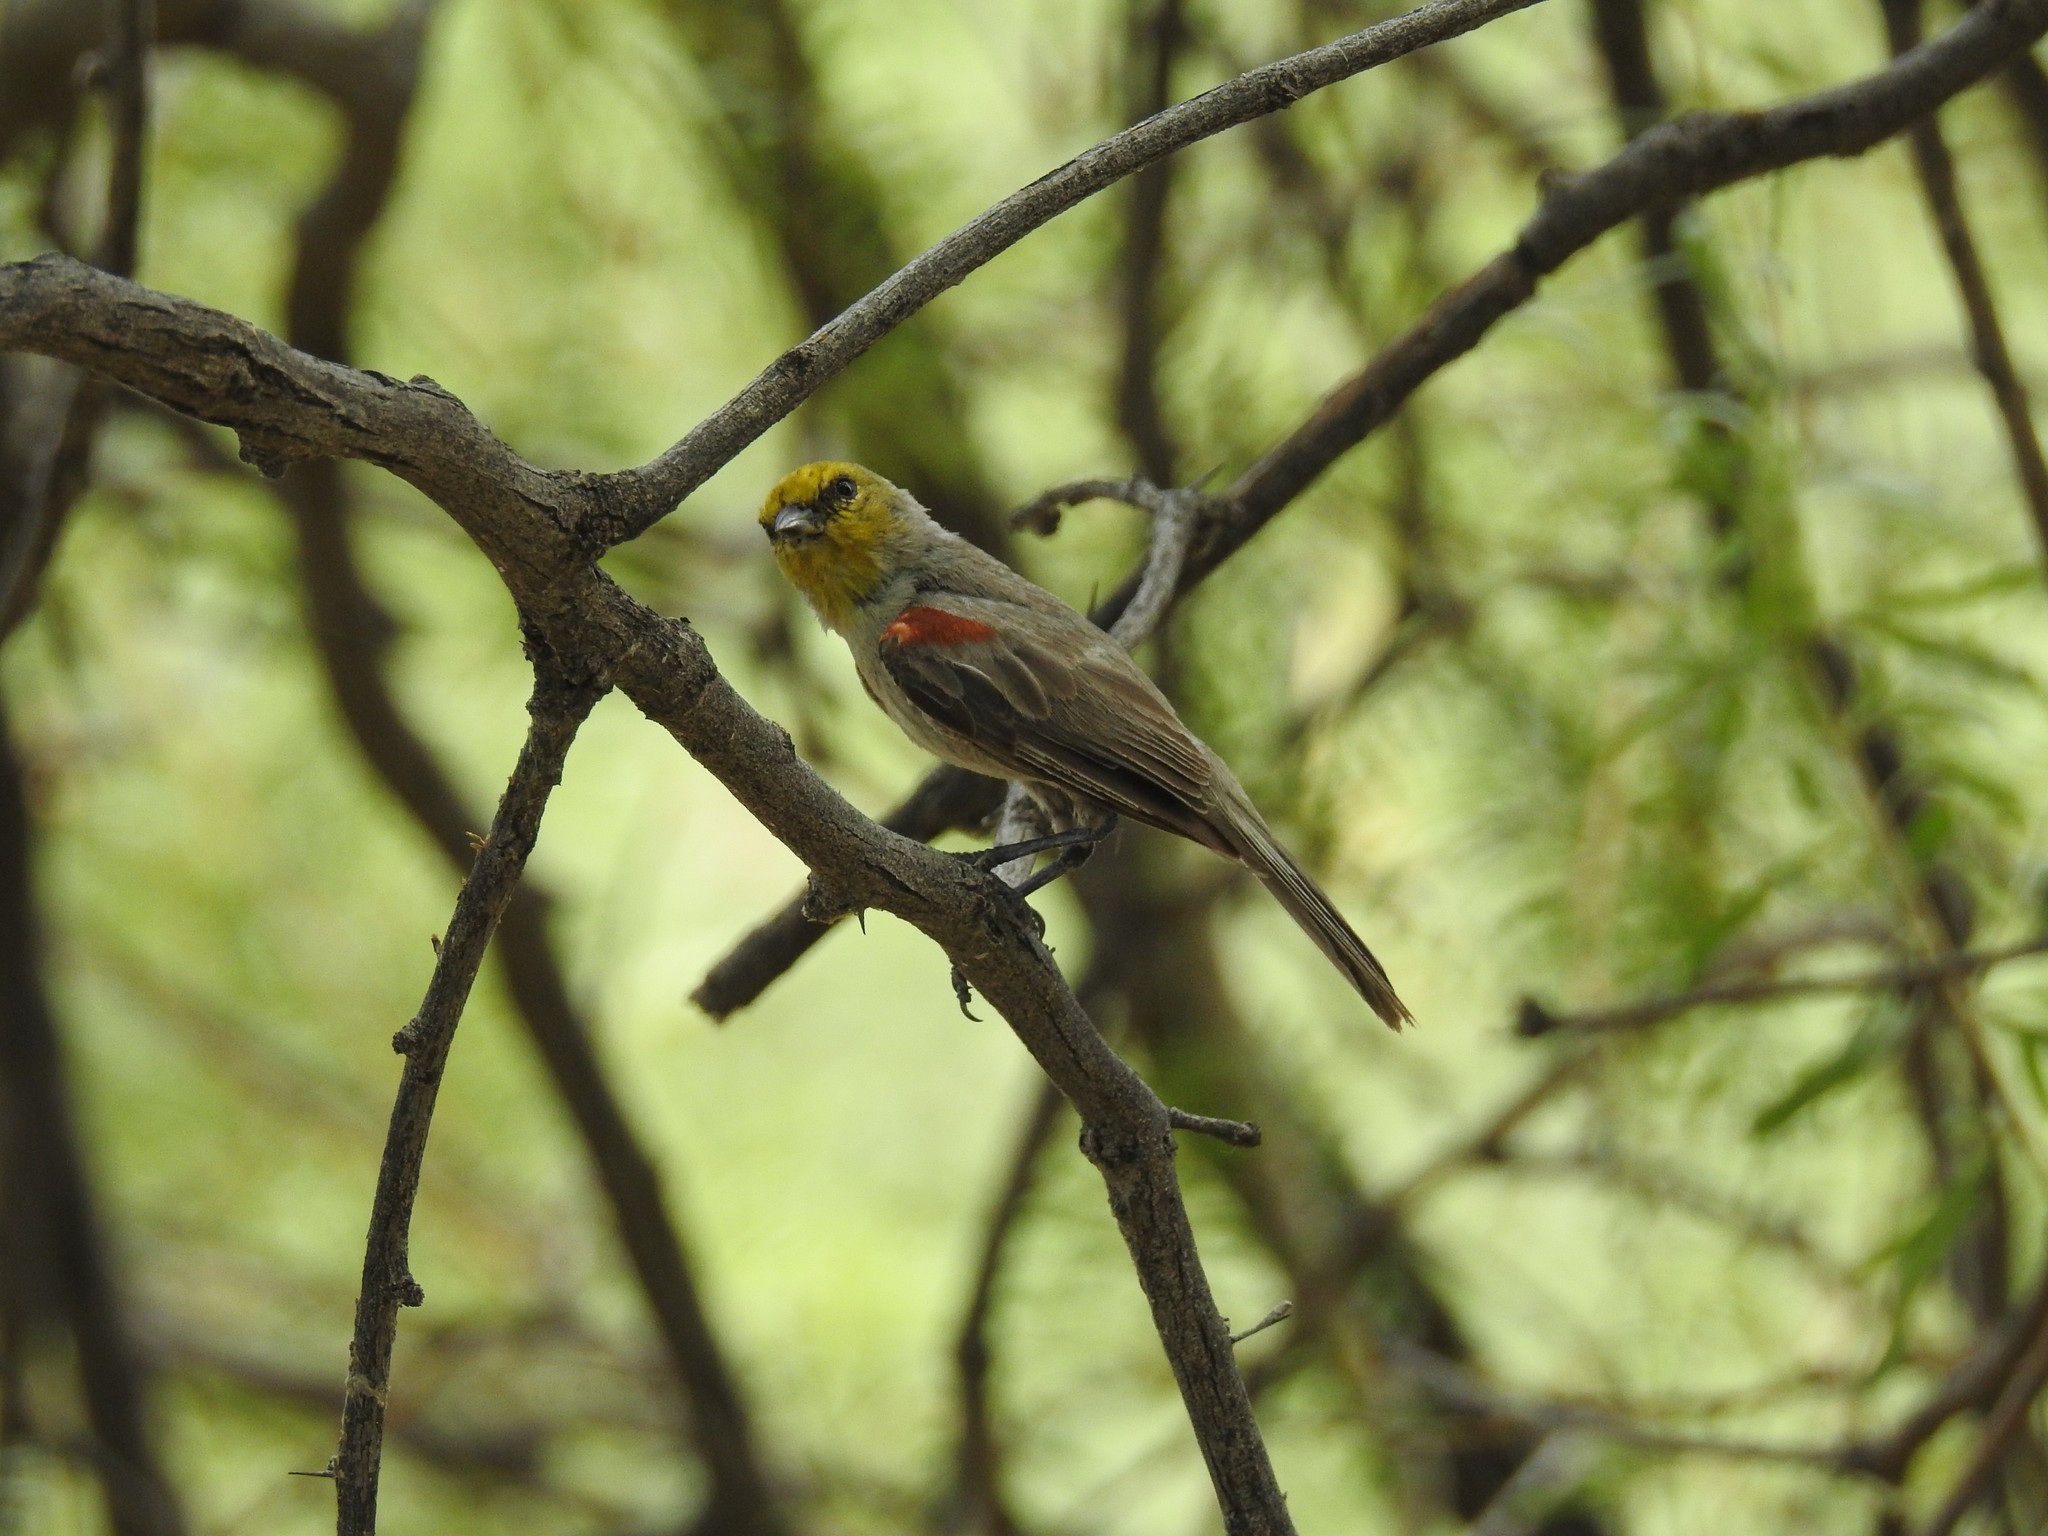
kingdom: Animalia
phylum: Chordata
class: Aves
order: Passeriformes
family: Remizidae
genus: Auriparus
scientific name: Auriparus flaviceps
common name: Verdin
